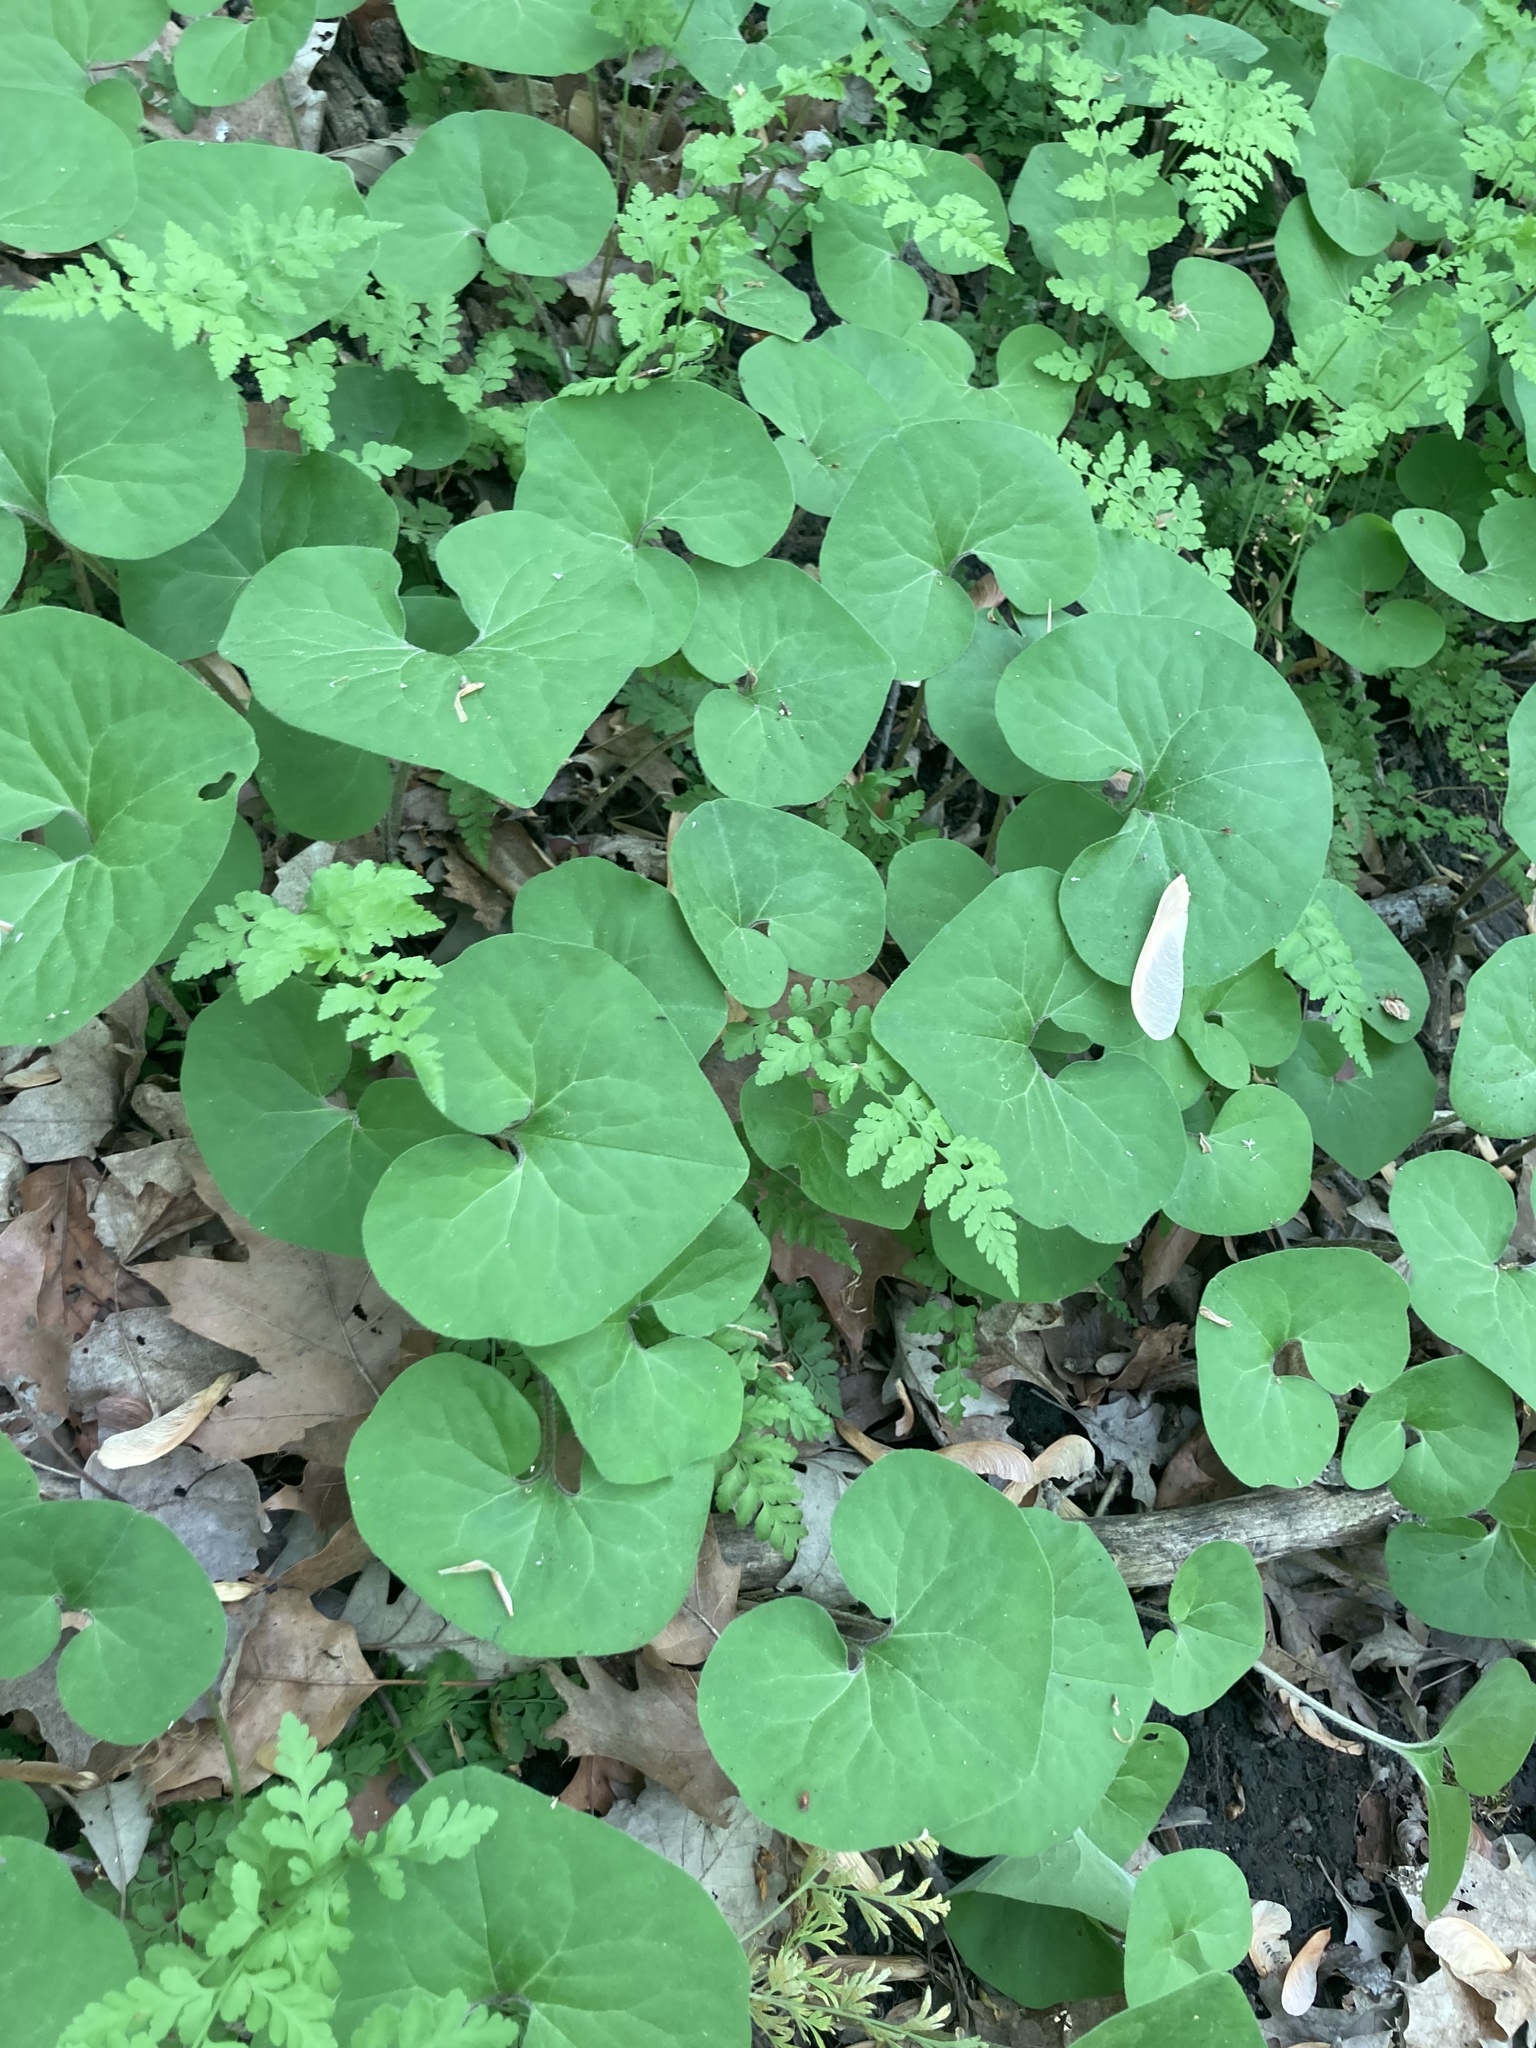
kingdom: Plantae
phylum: Tracheophyta
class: Magnoliopsida
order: Piperales
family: Aristolochiaceae
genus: Asarum
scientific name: Asarum canadense
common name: Wild ginger
